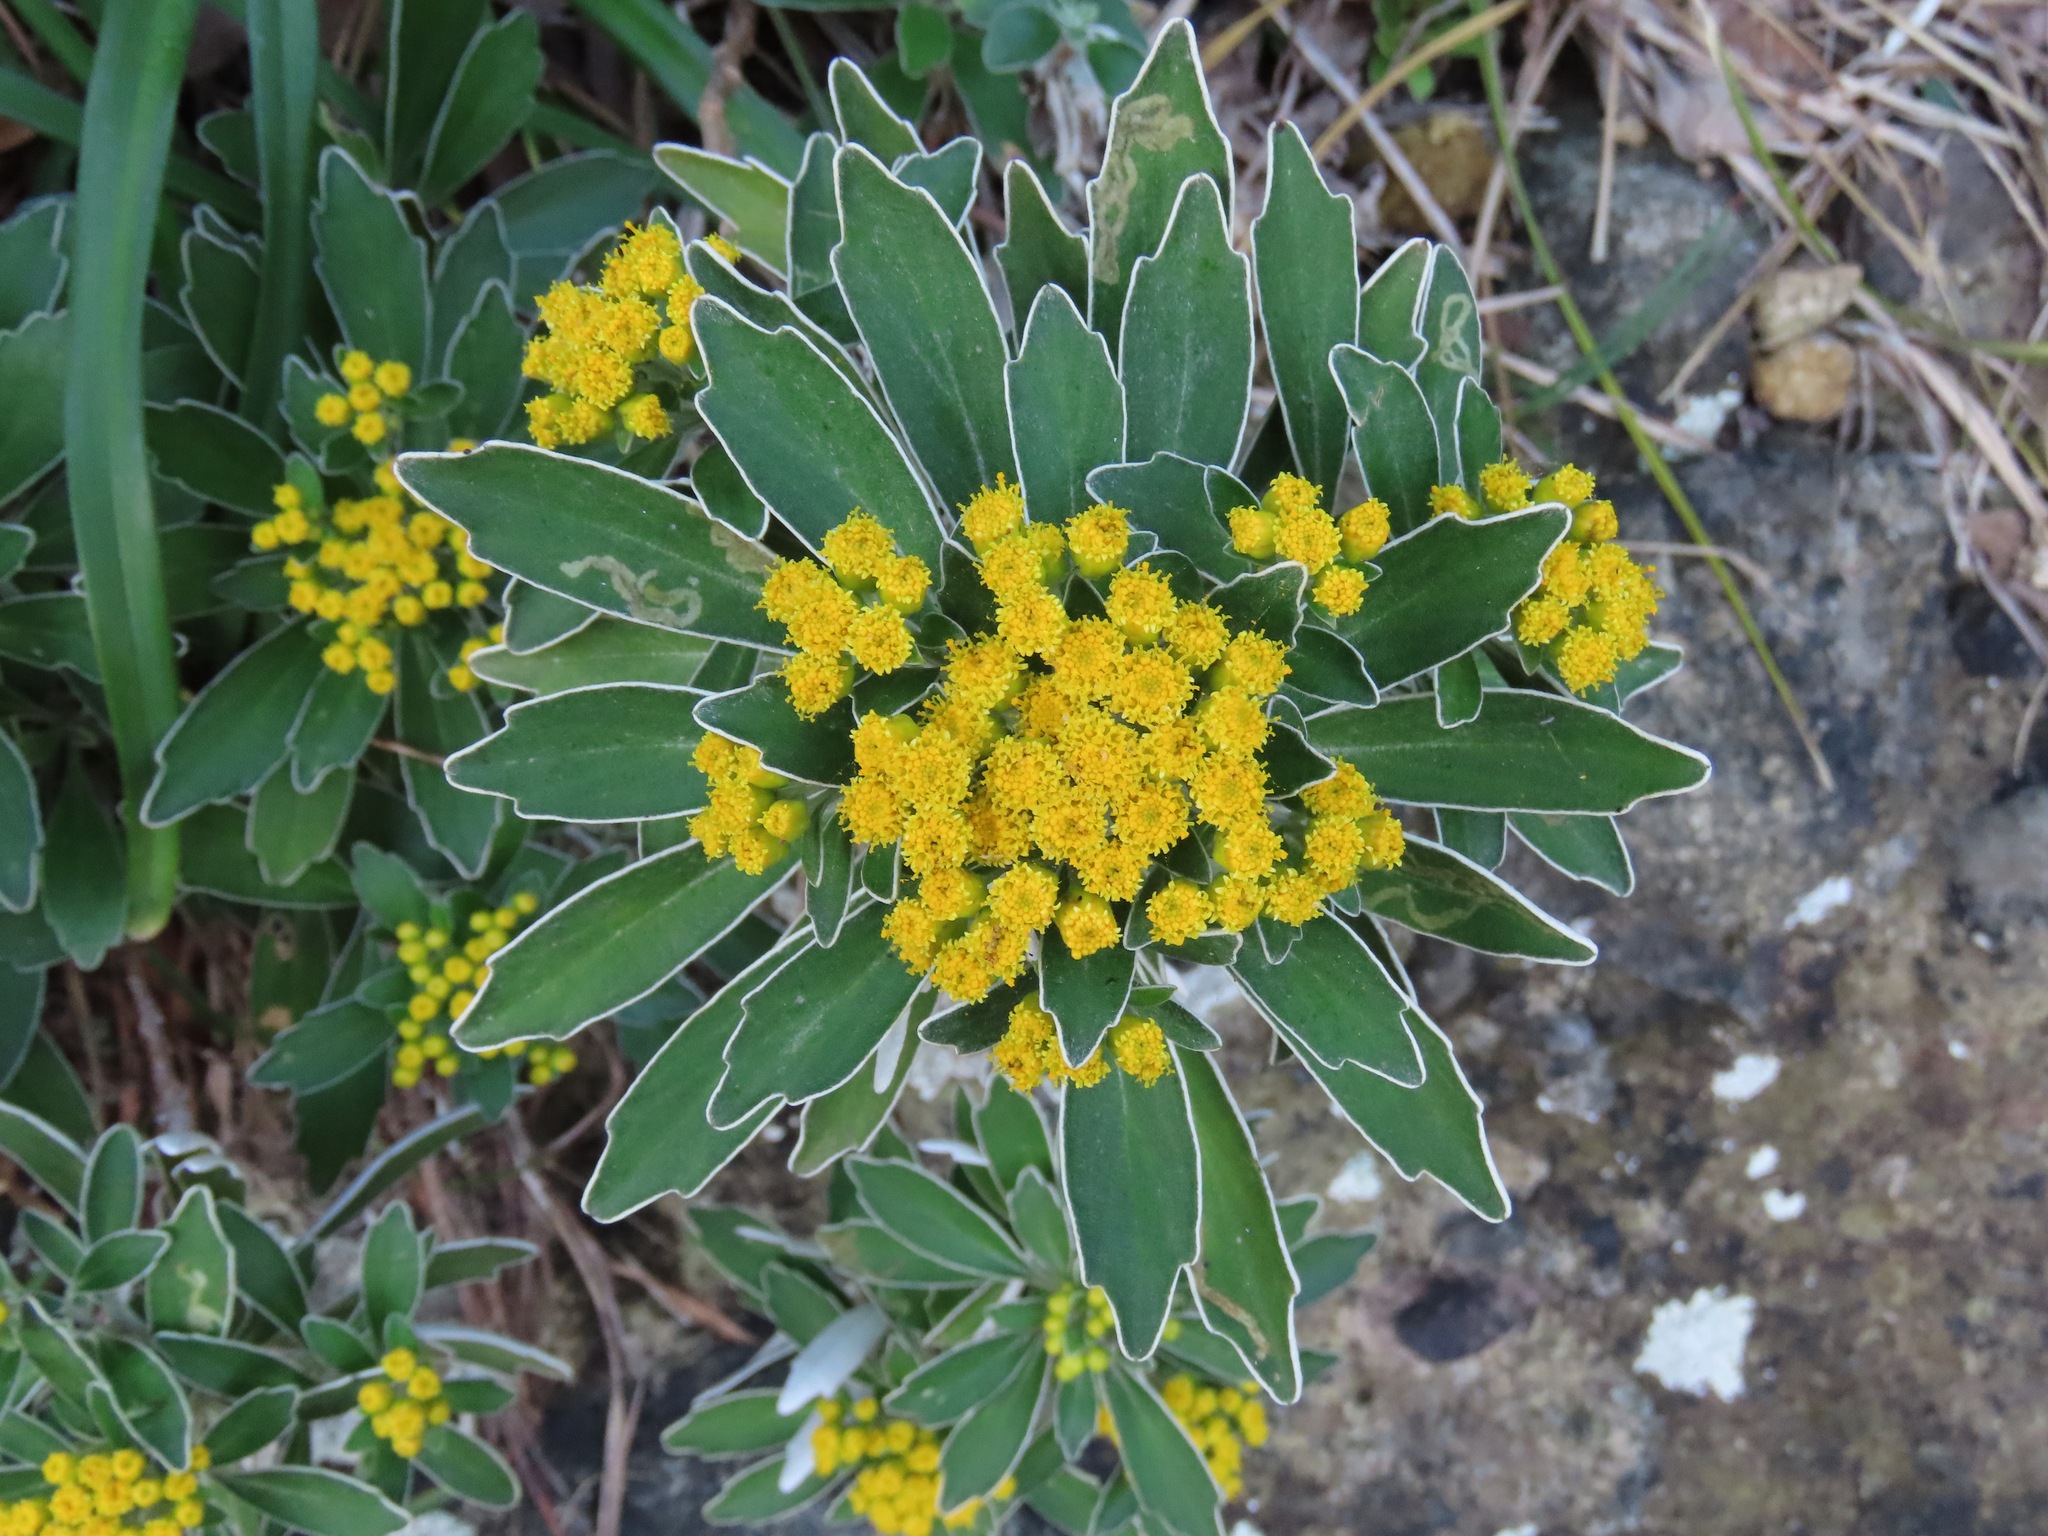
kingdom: Plantae
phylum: Tracheophyta
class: Magnoliopsida
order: Asterales
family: Asteraceae
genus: Ajania
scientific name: Ajania pacifica
